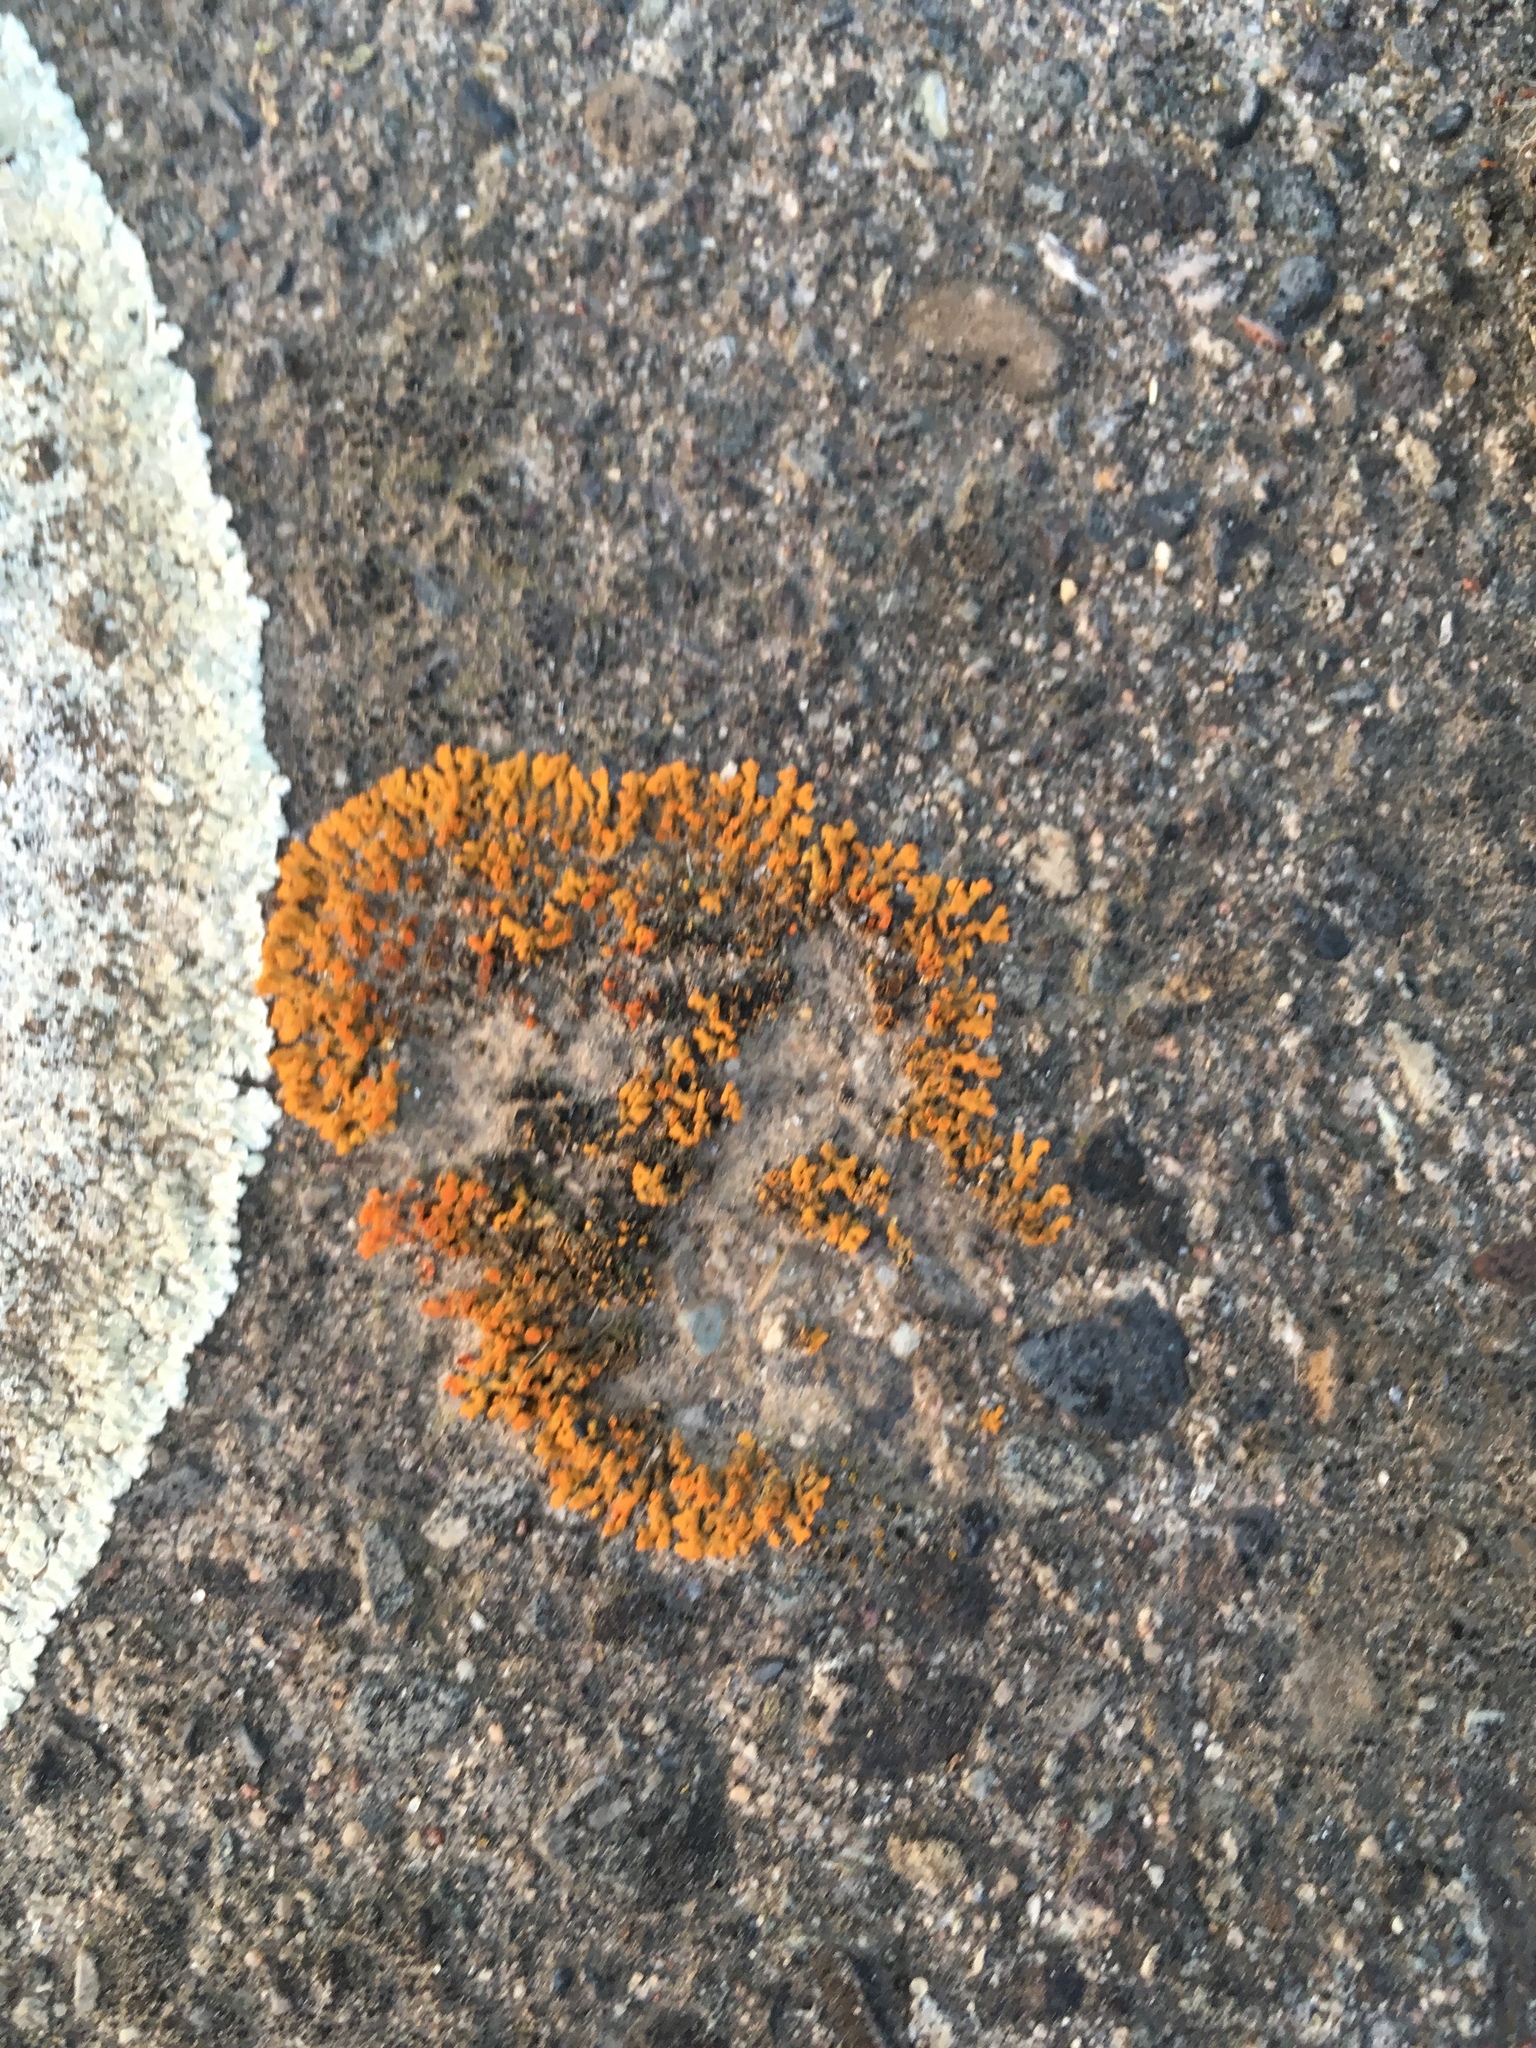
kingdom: Fungi
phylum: Ascomycota
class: Lecanoromycetes
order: Teloschistales
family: Teloschistaceae
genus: Xanthoria
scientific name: Xanthoria elegans
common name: Elegant sunburst lichen
